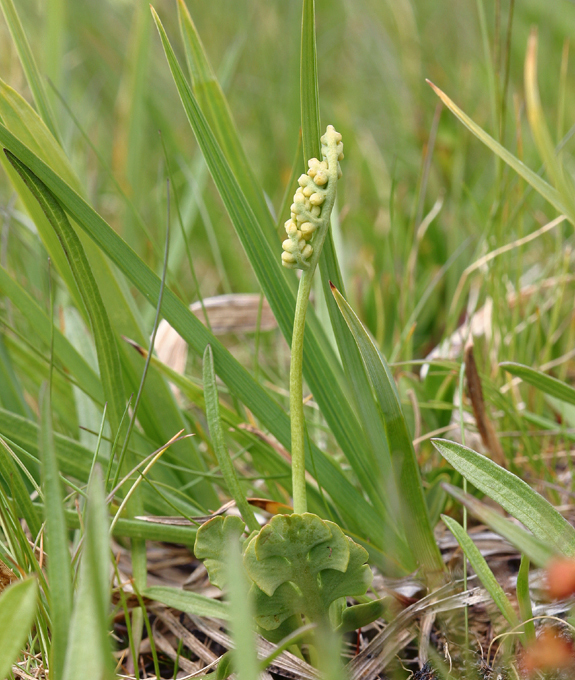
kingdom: Plantae
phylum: Tracheophyta
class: Polypodiopsida
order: Ophioglossales
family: Ophioglossaceae
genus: Botrychium
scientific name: Botrychium simplex
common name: Least moonwort
